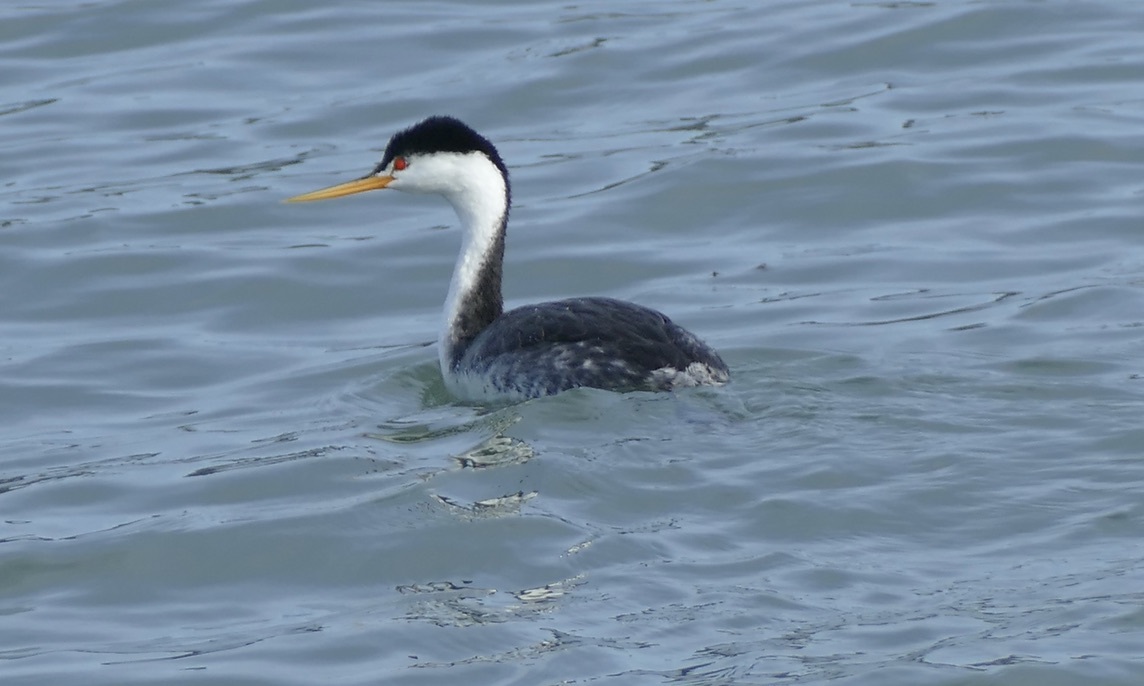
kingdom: Animalia
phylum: Chordata
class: Aves
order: Podicipediformes
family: Podicipedidae
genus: Aechmophorus
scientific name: Aechmophorus clarkii
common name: Clark's grebe
